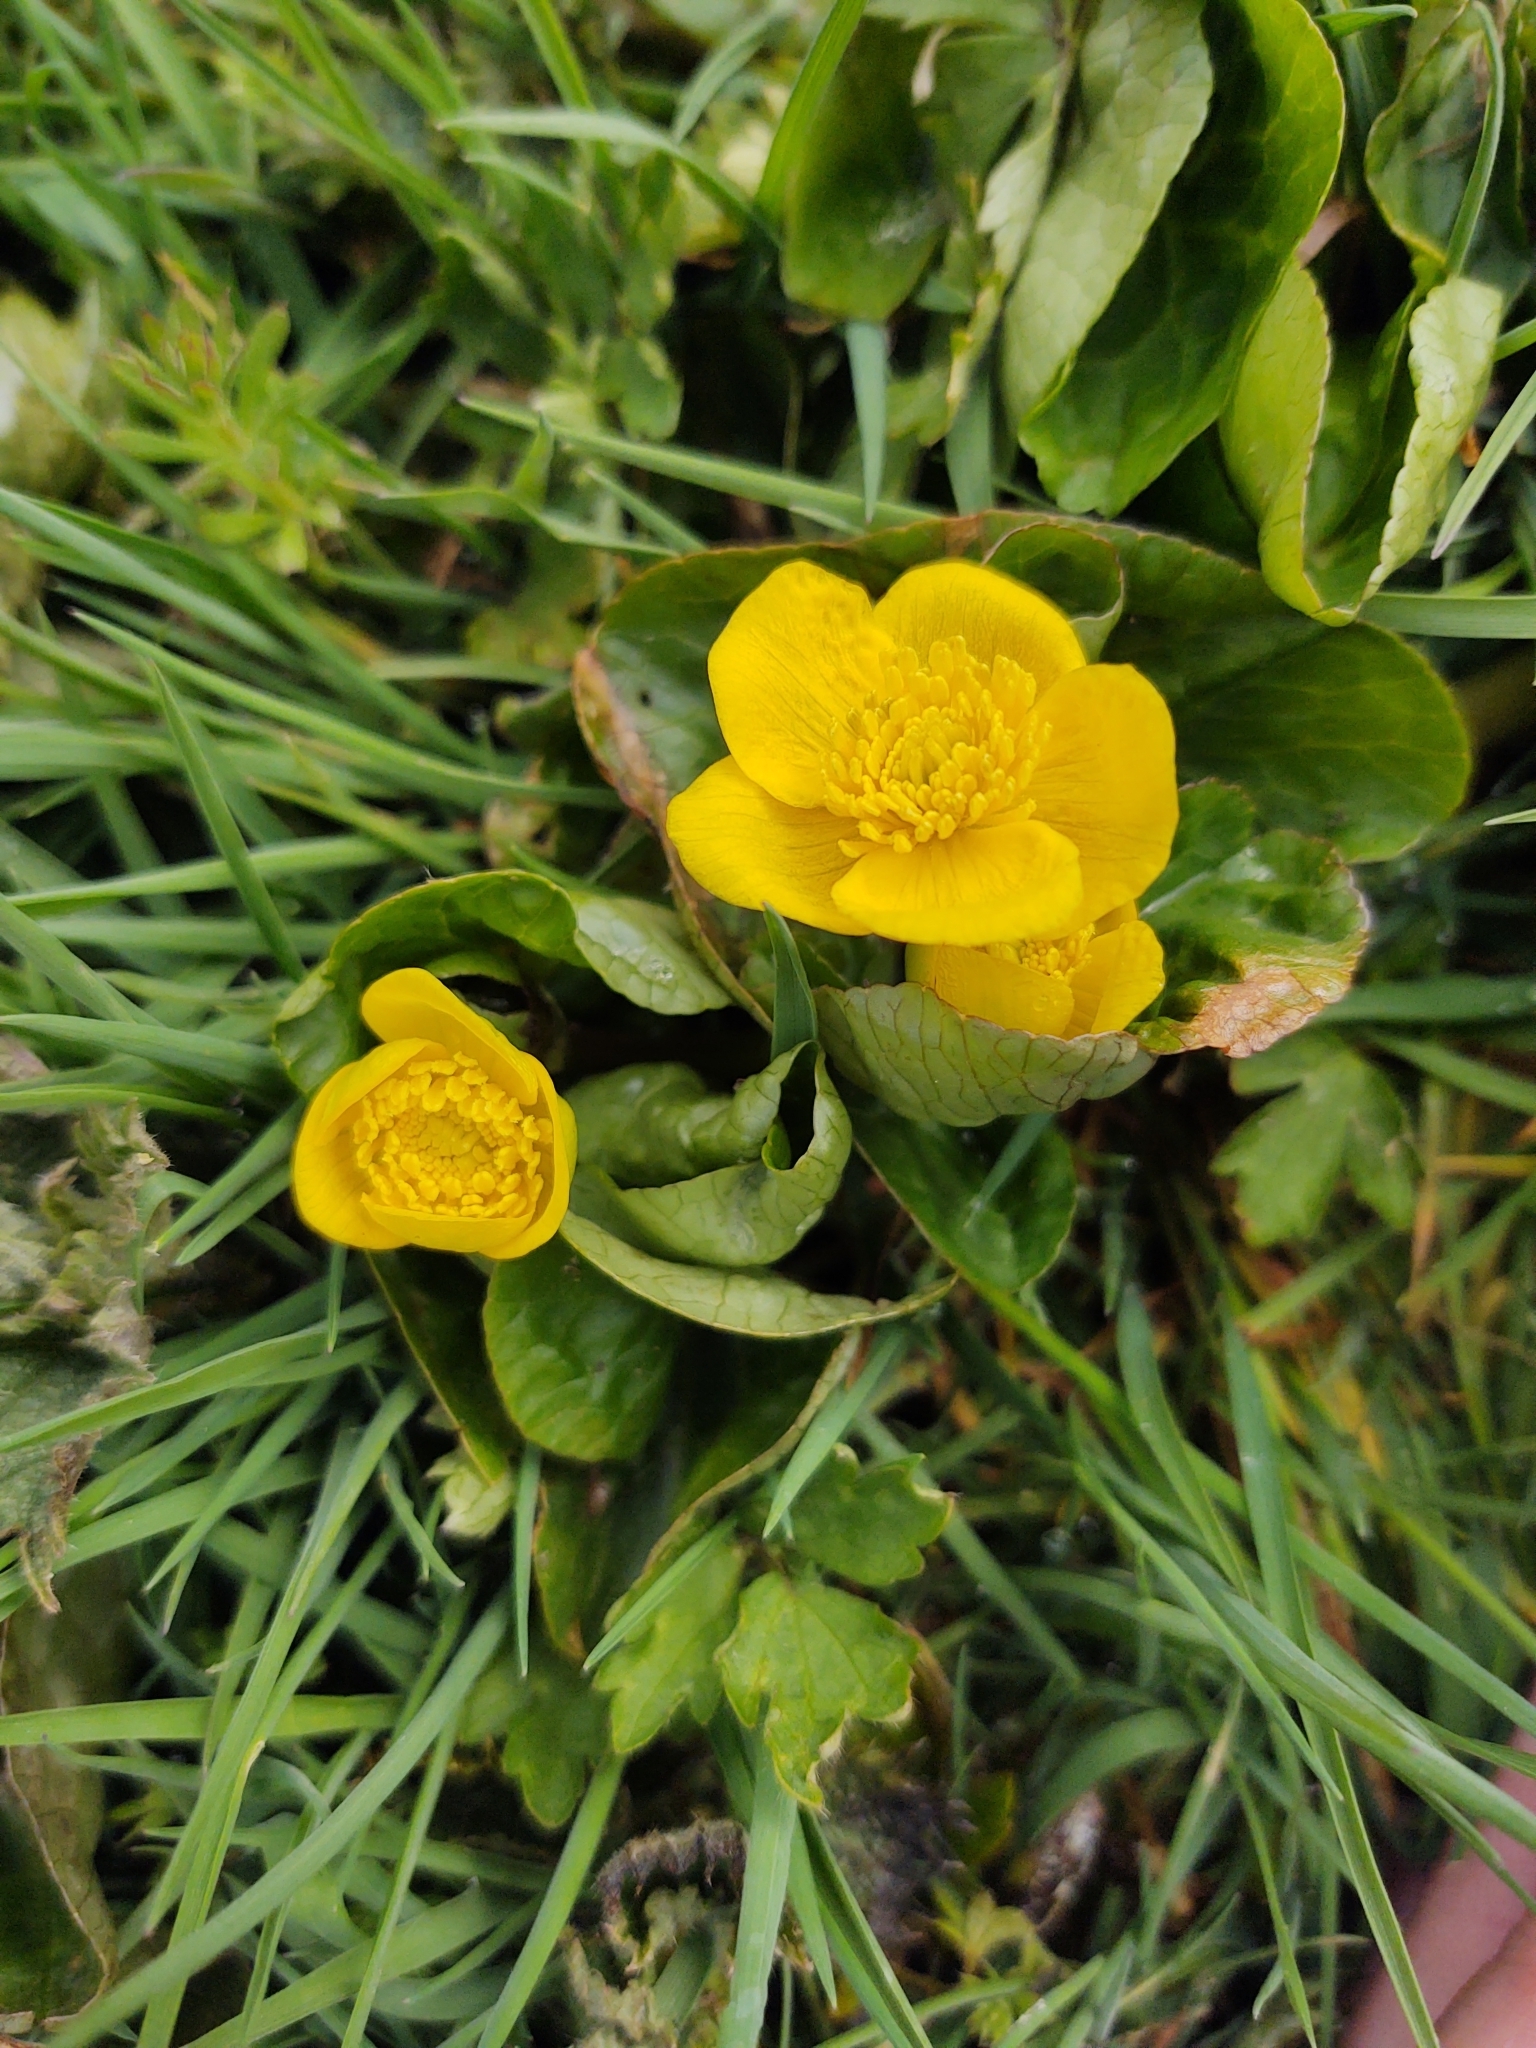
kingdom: Plantae
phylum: Tracheophyta
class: Magnoliopsida
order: Ranunculales
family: Ranunculaceae
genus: Caltha
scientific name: Caltha palustris
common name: Marsh marigold
